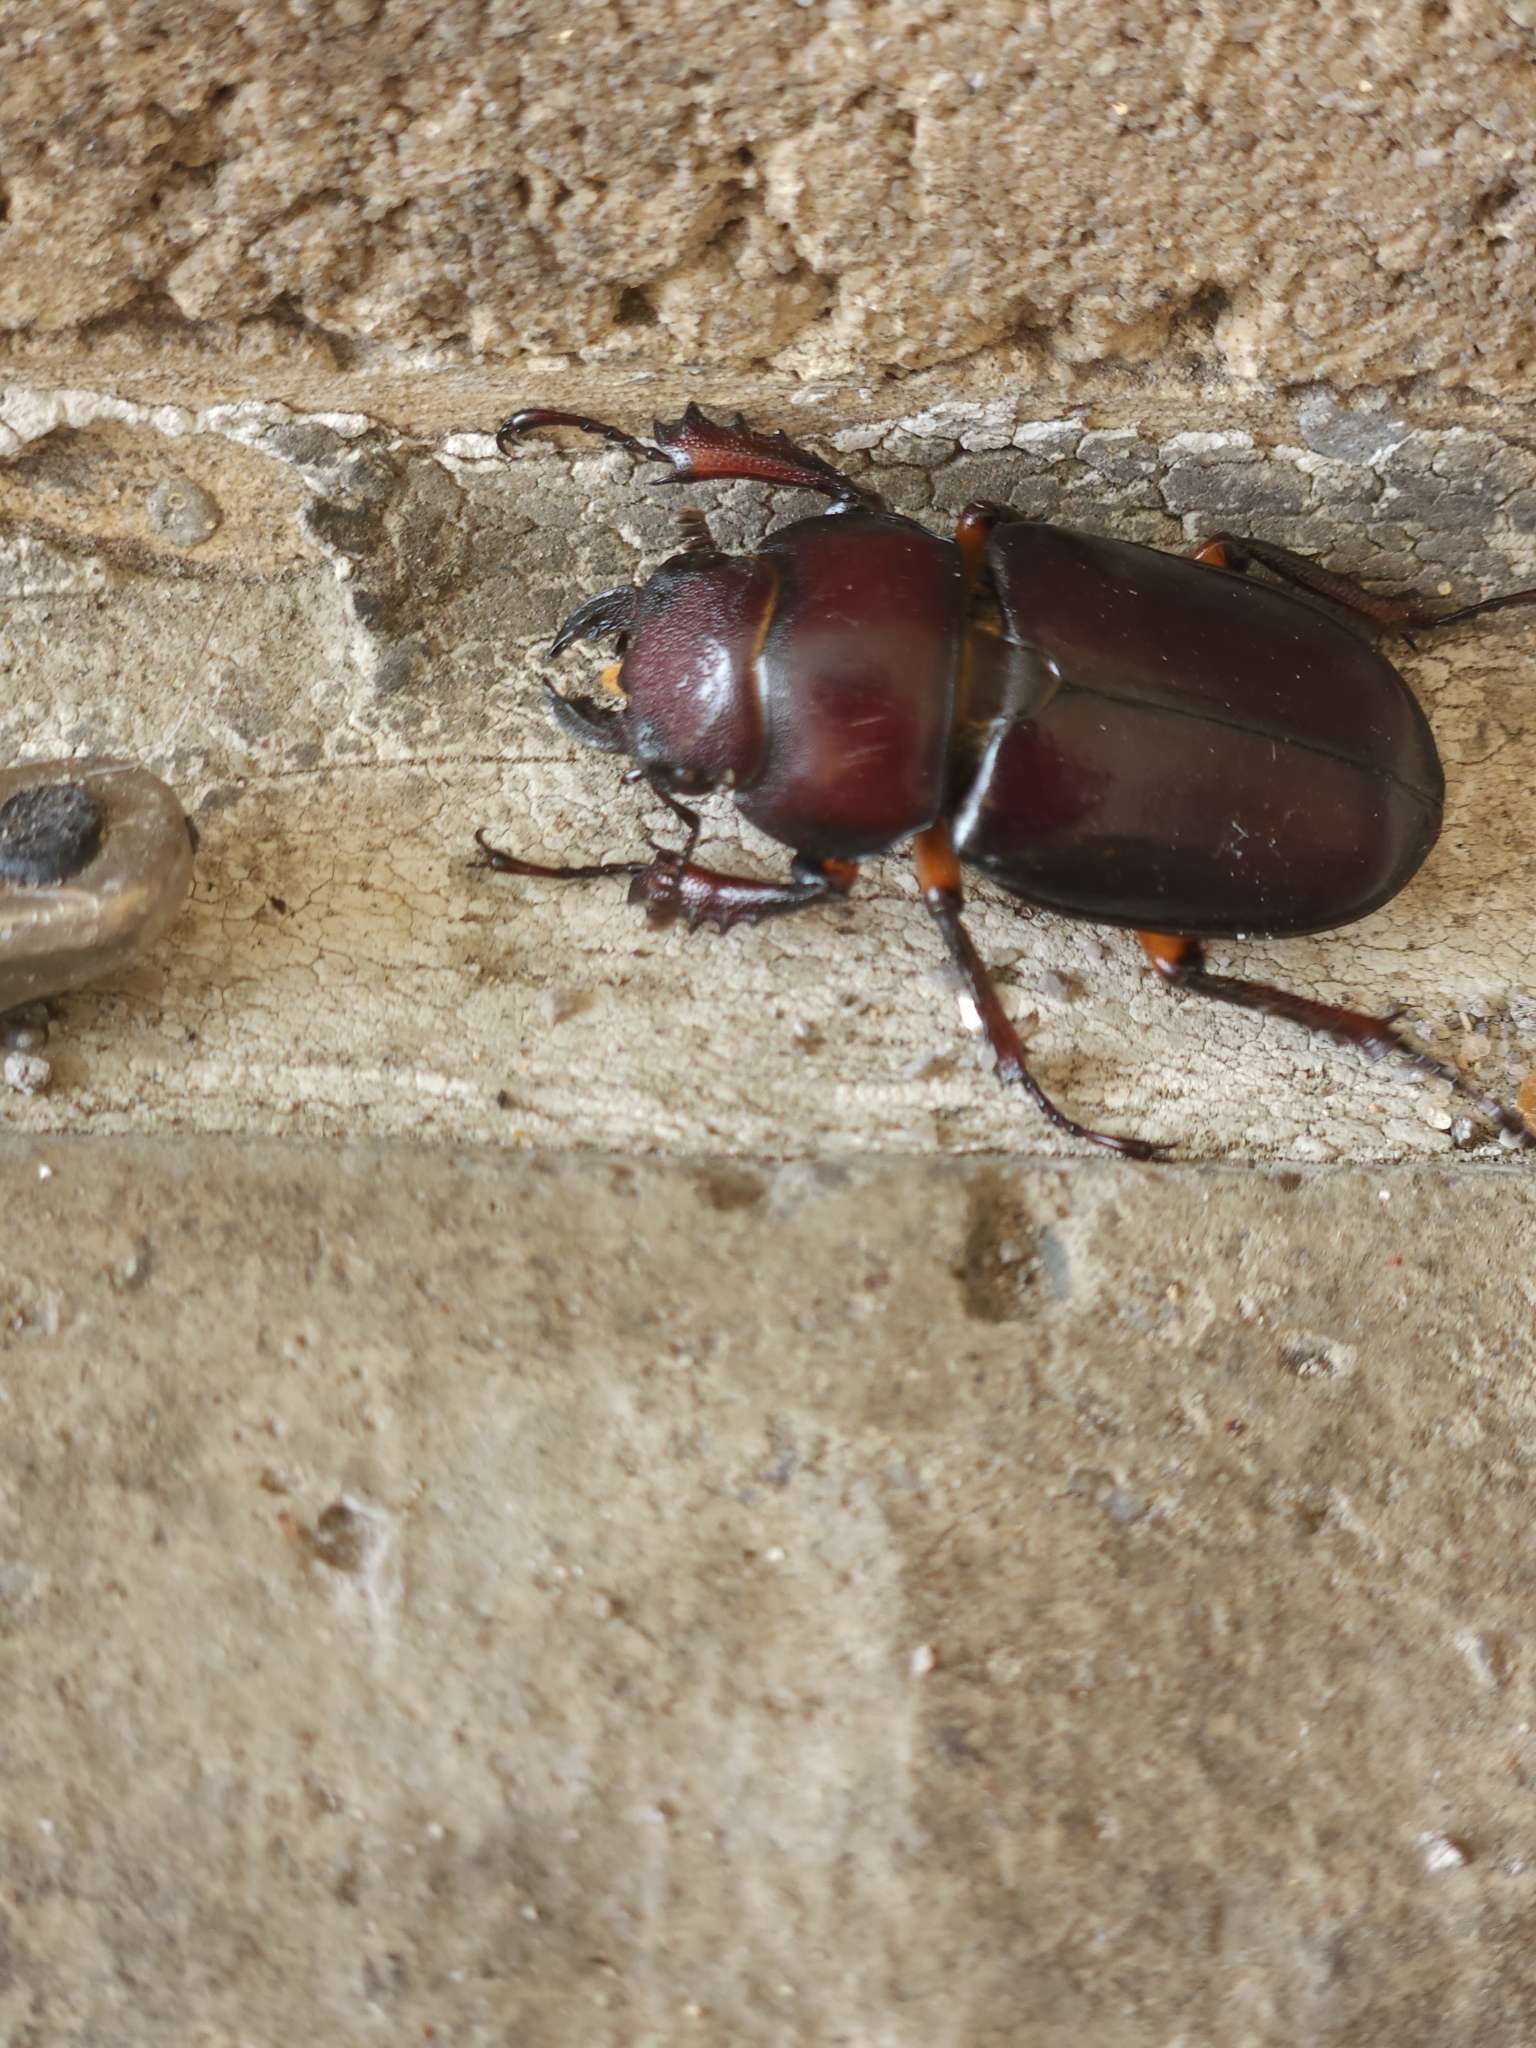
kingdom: Animalia
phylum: Arthropoda
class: Insecta
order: Coleoptera
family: Lucanidae
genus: Lucanus
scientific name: Lucanus capreolus
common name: Stag beetle
